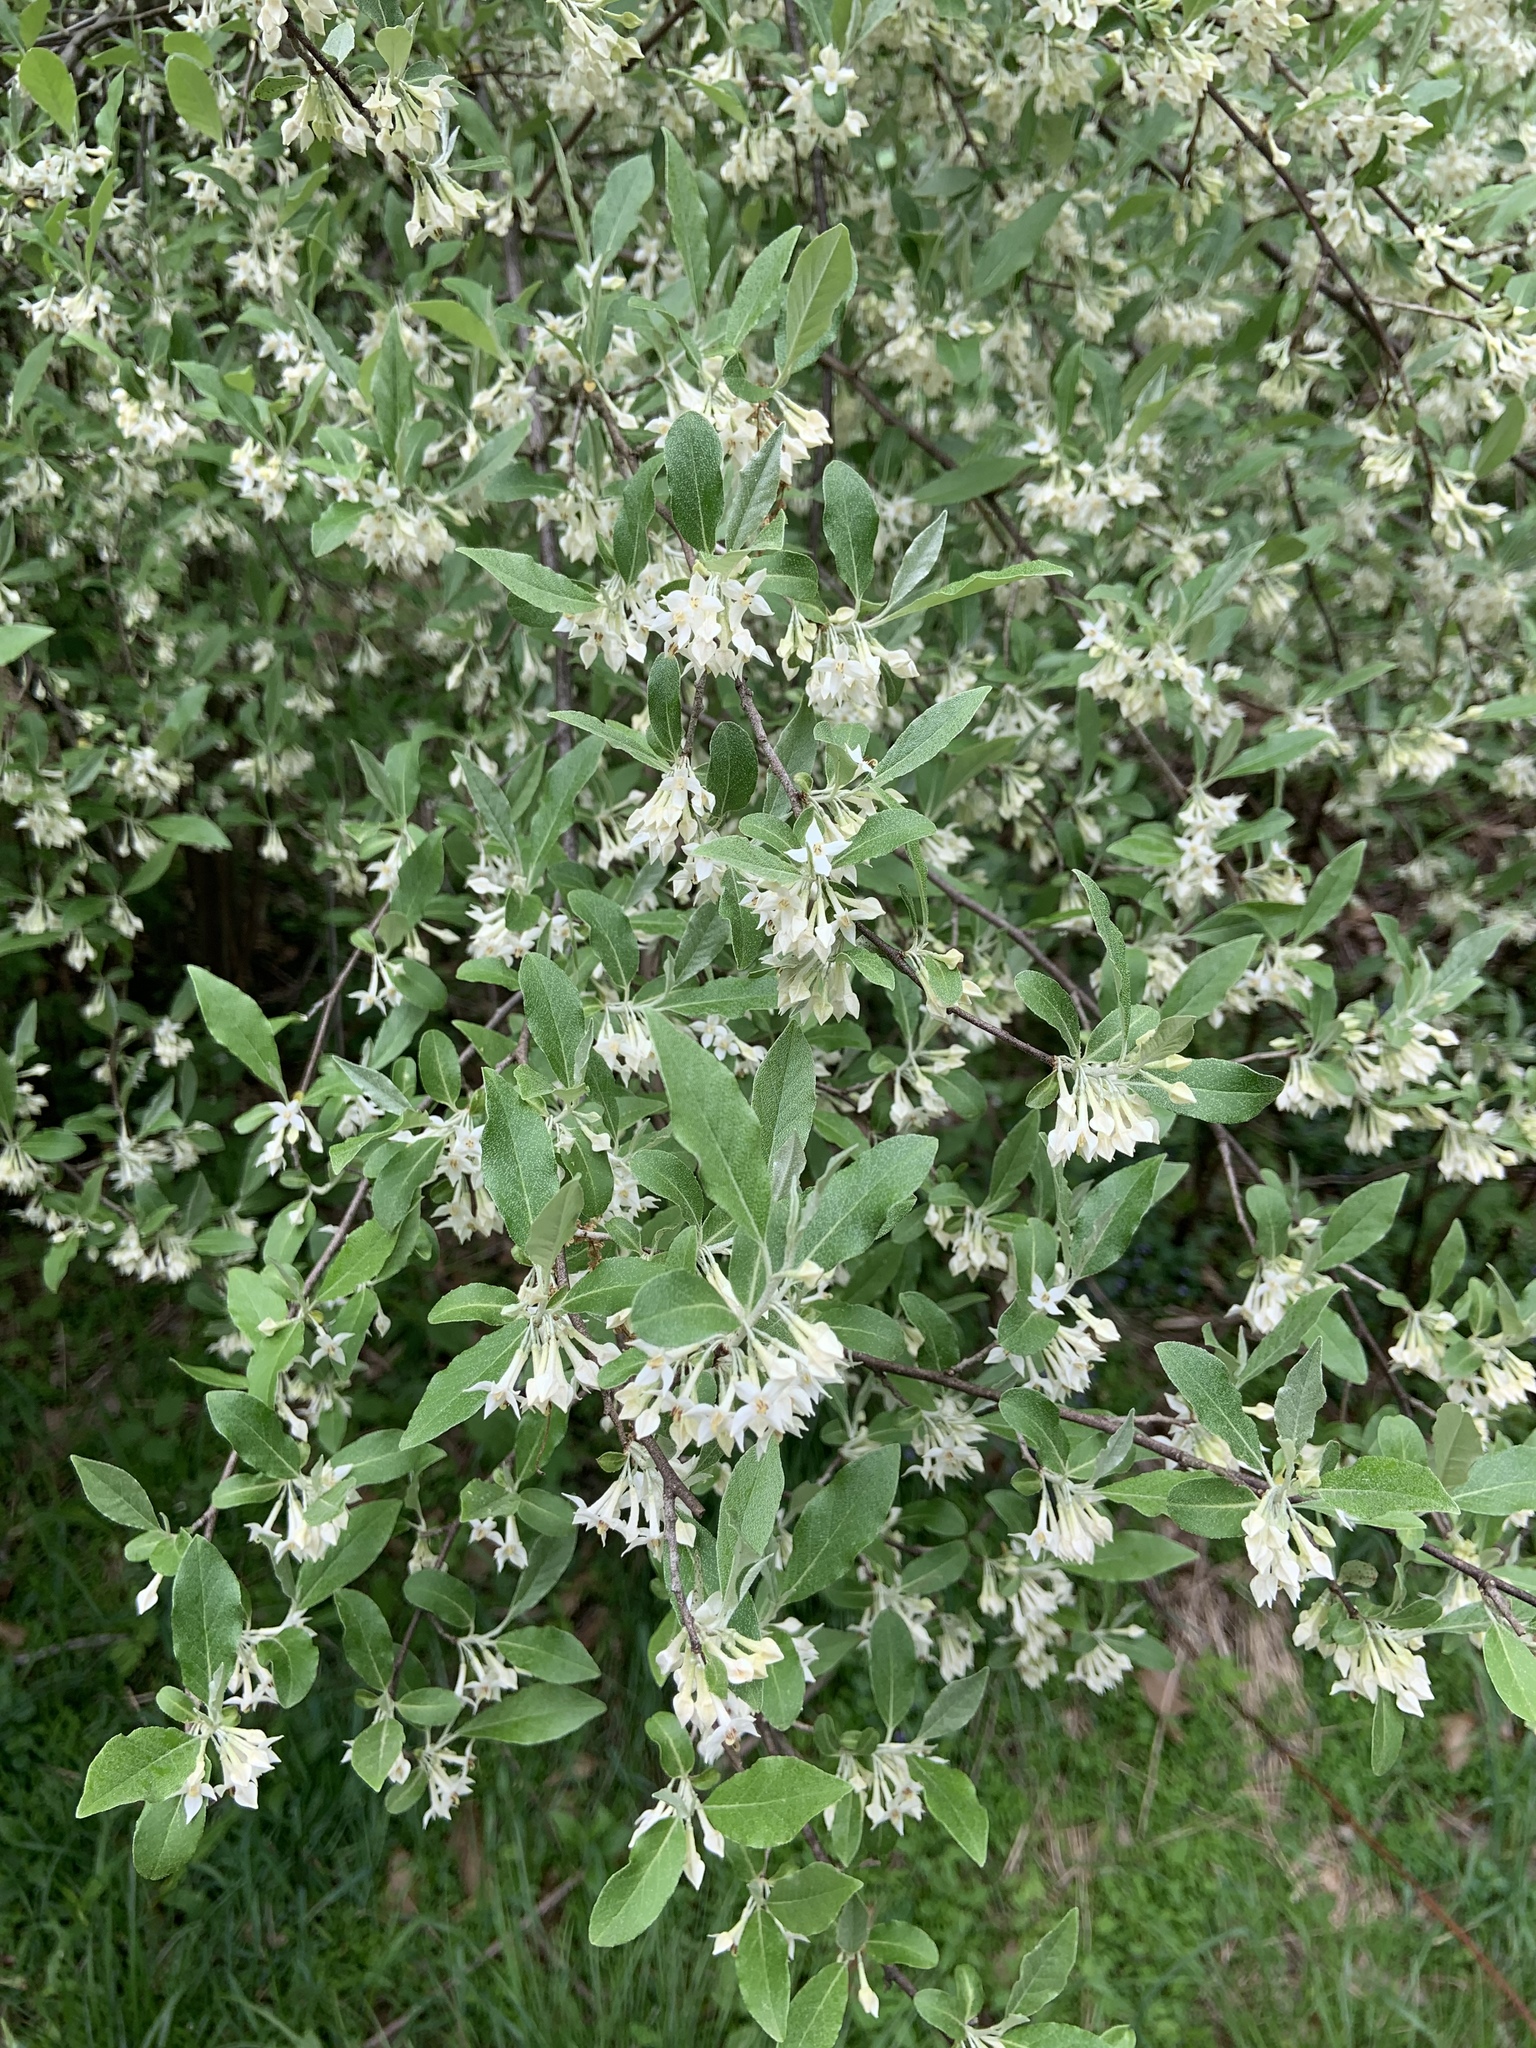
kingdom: Plantae
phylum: Tracheophyta
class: Magnoliopsida
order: Rosales
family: Elaeagnaceae
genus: Elaeagnus
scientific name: Elaeagnus umbellata
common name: Autumn olive
